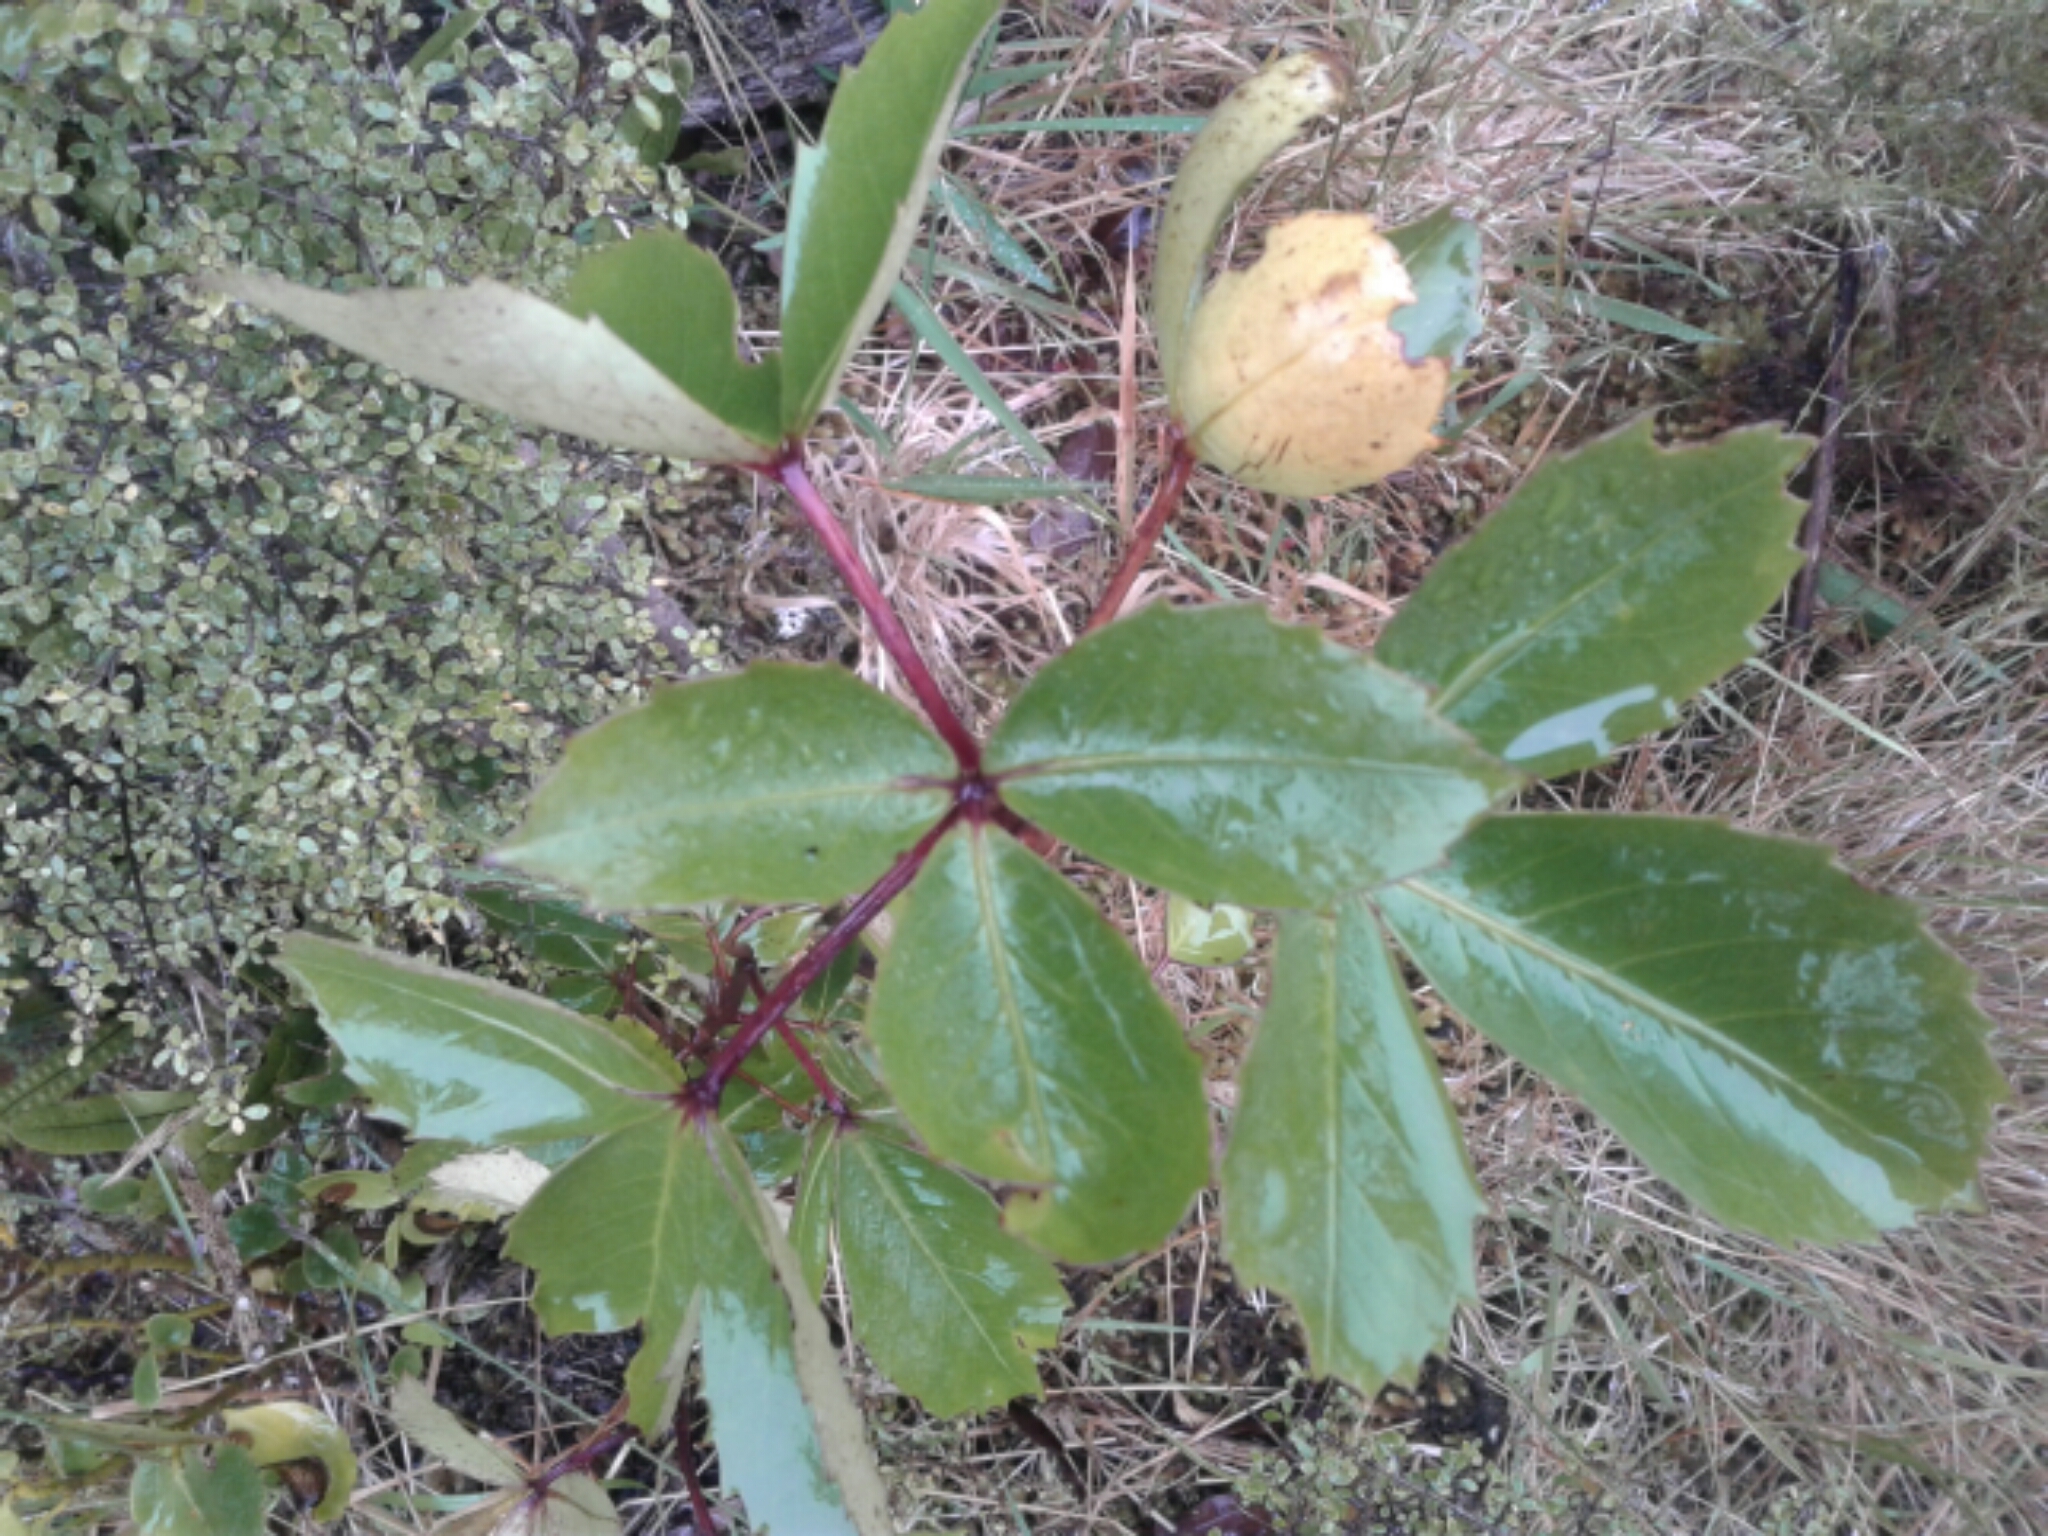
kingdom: Plantae
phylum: Tracheophyta
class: Magnoliopsida
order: Apiales
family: Araliaceae
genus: Neopanax
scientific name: Neopanax colensoi
